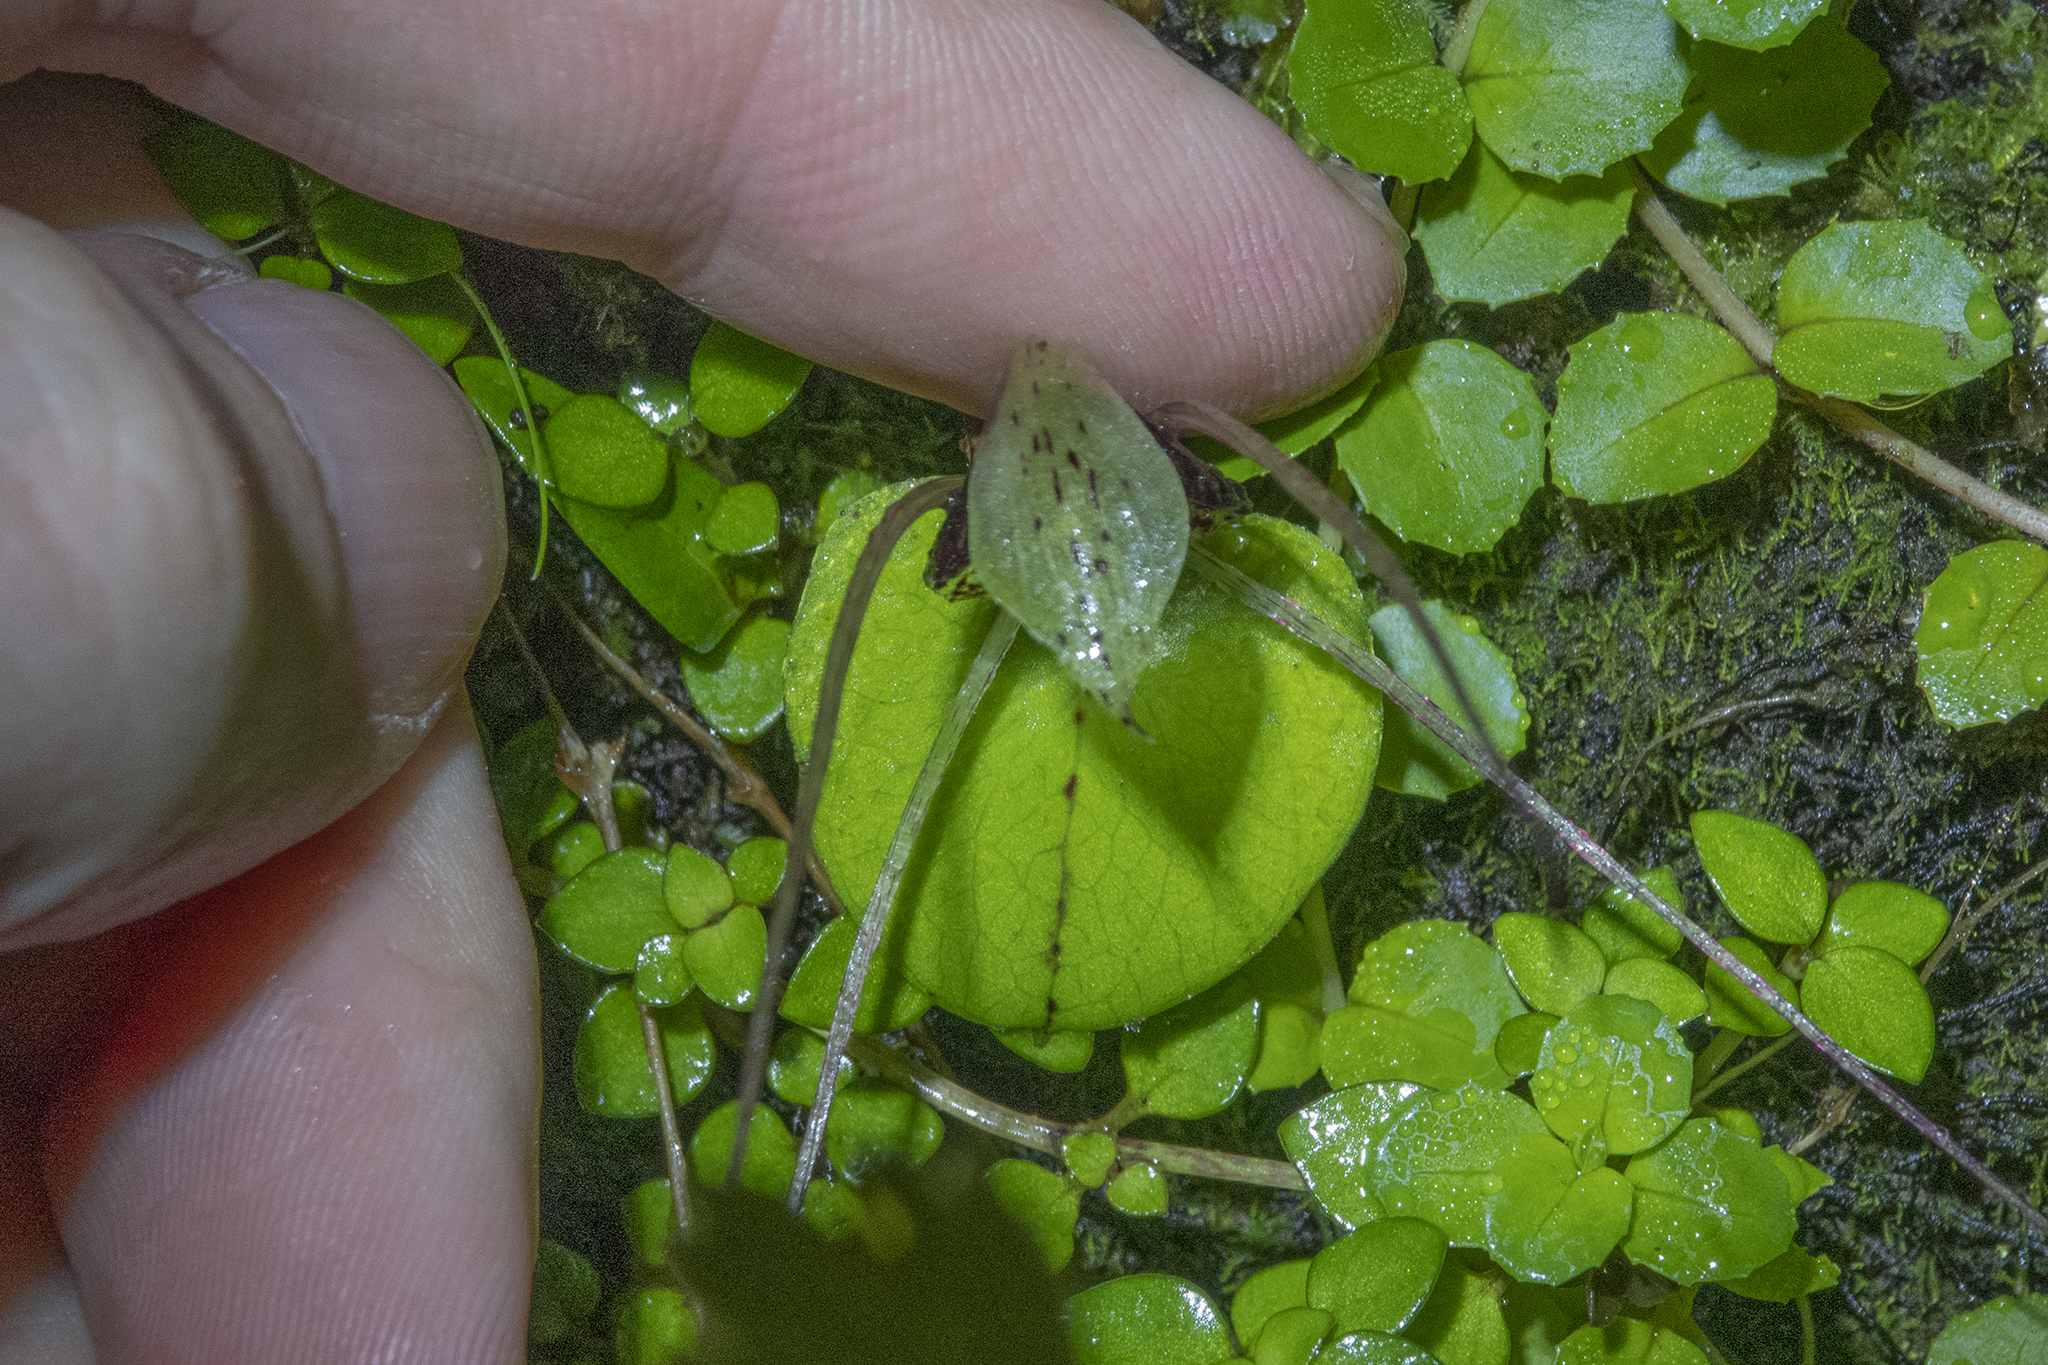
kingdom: Plantae
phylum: Tracheophyta
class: Liliopsida
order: Asparagales
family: Orchidaceae
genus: Corybas
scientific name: Corybas hatchii
